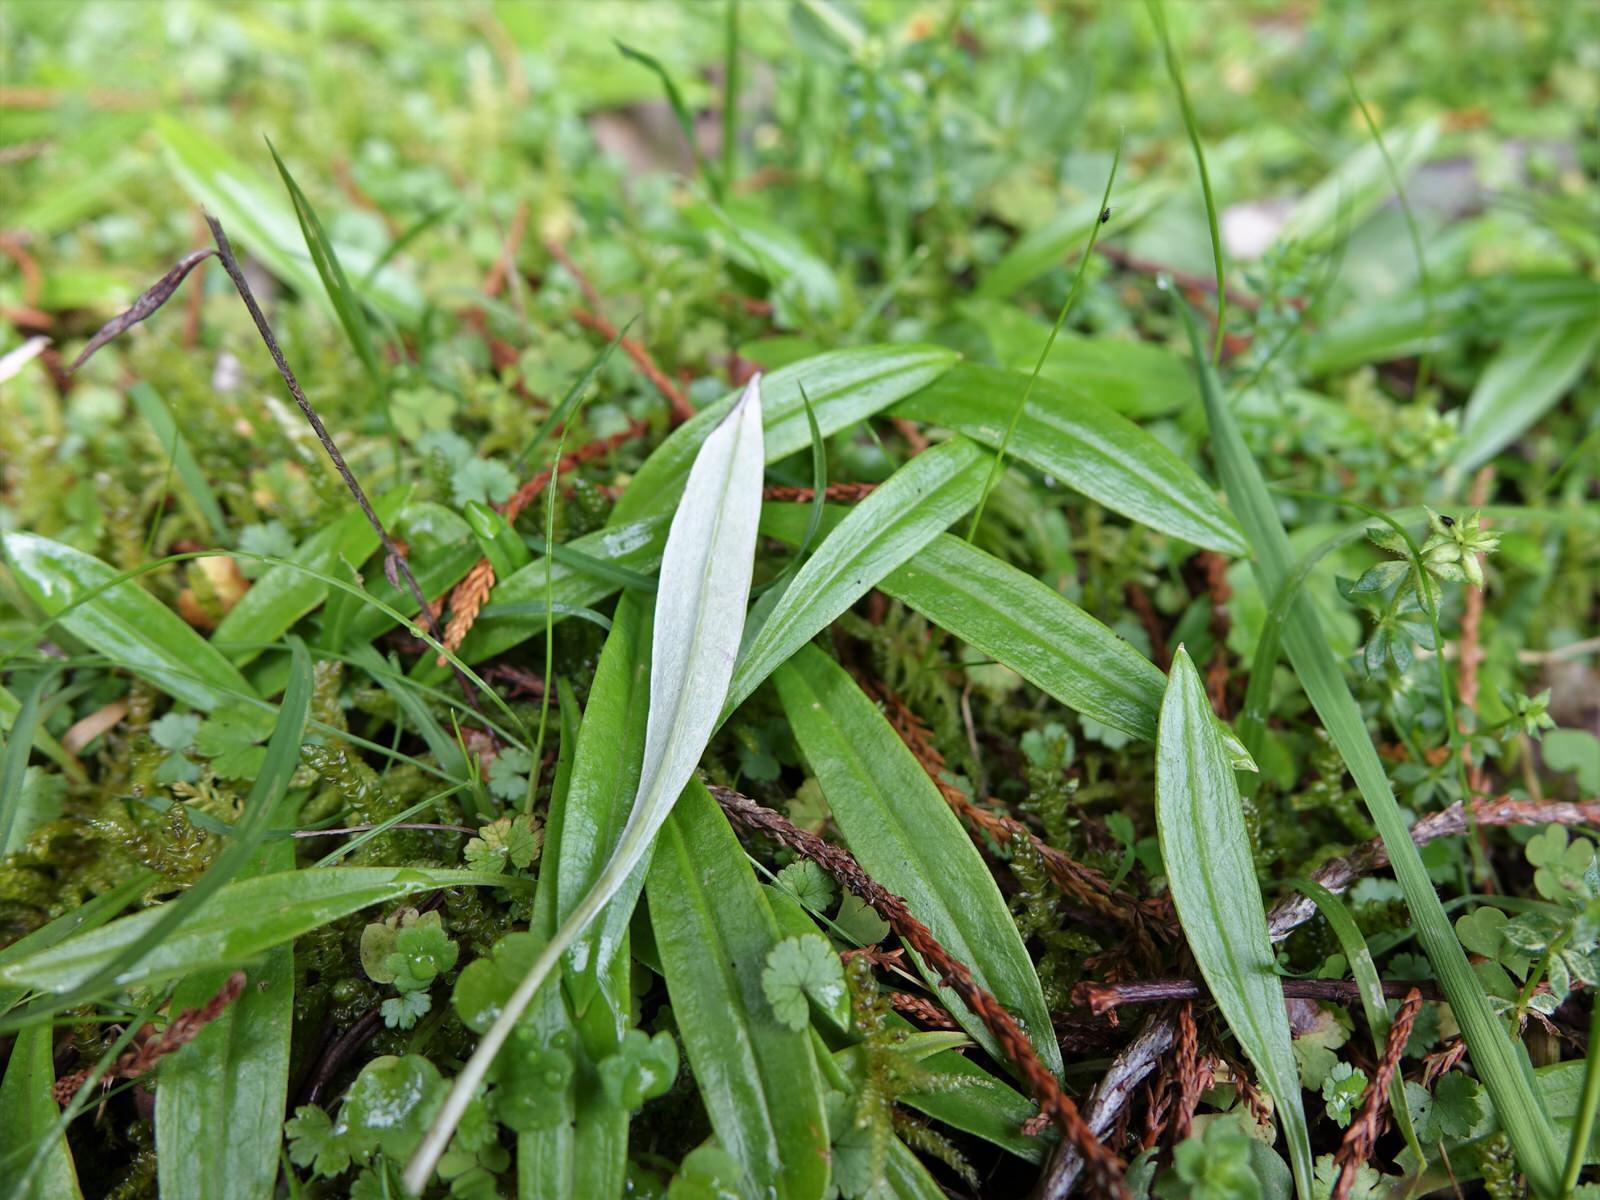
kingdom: Plantae
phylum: Tracheophyta
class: Magnoliopsida
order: Asterales
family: Asteraceae
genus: Euchiton
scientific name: Euchiton japonicus
